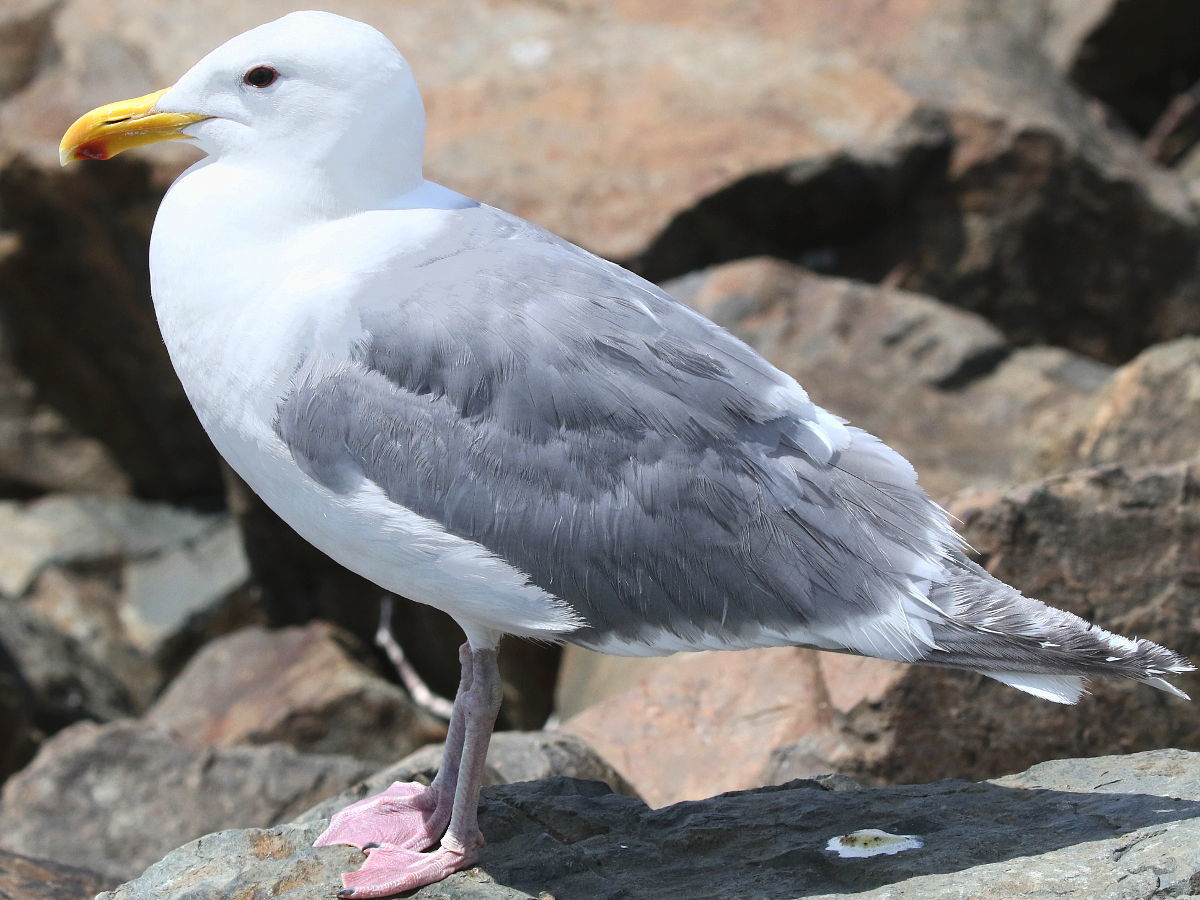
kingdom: Animalia
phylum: Chordata
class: Aves
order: Charadriiformes
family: Laridae
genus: Larus
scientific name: Larus glaucescens
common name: Glaucous-winged gull
